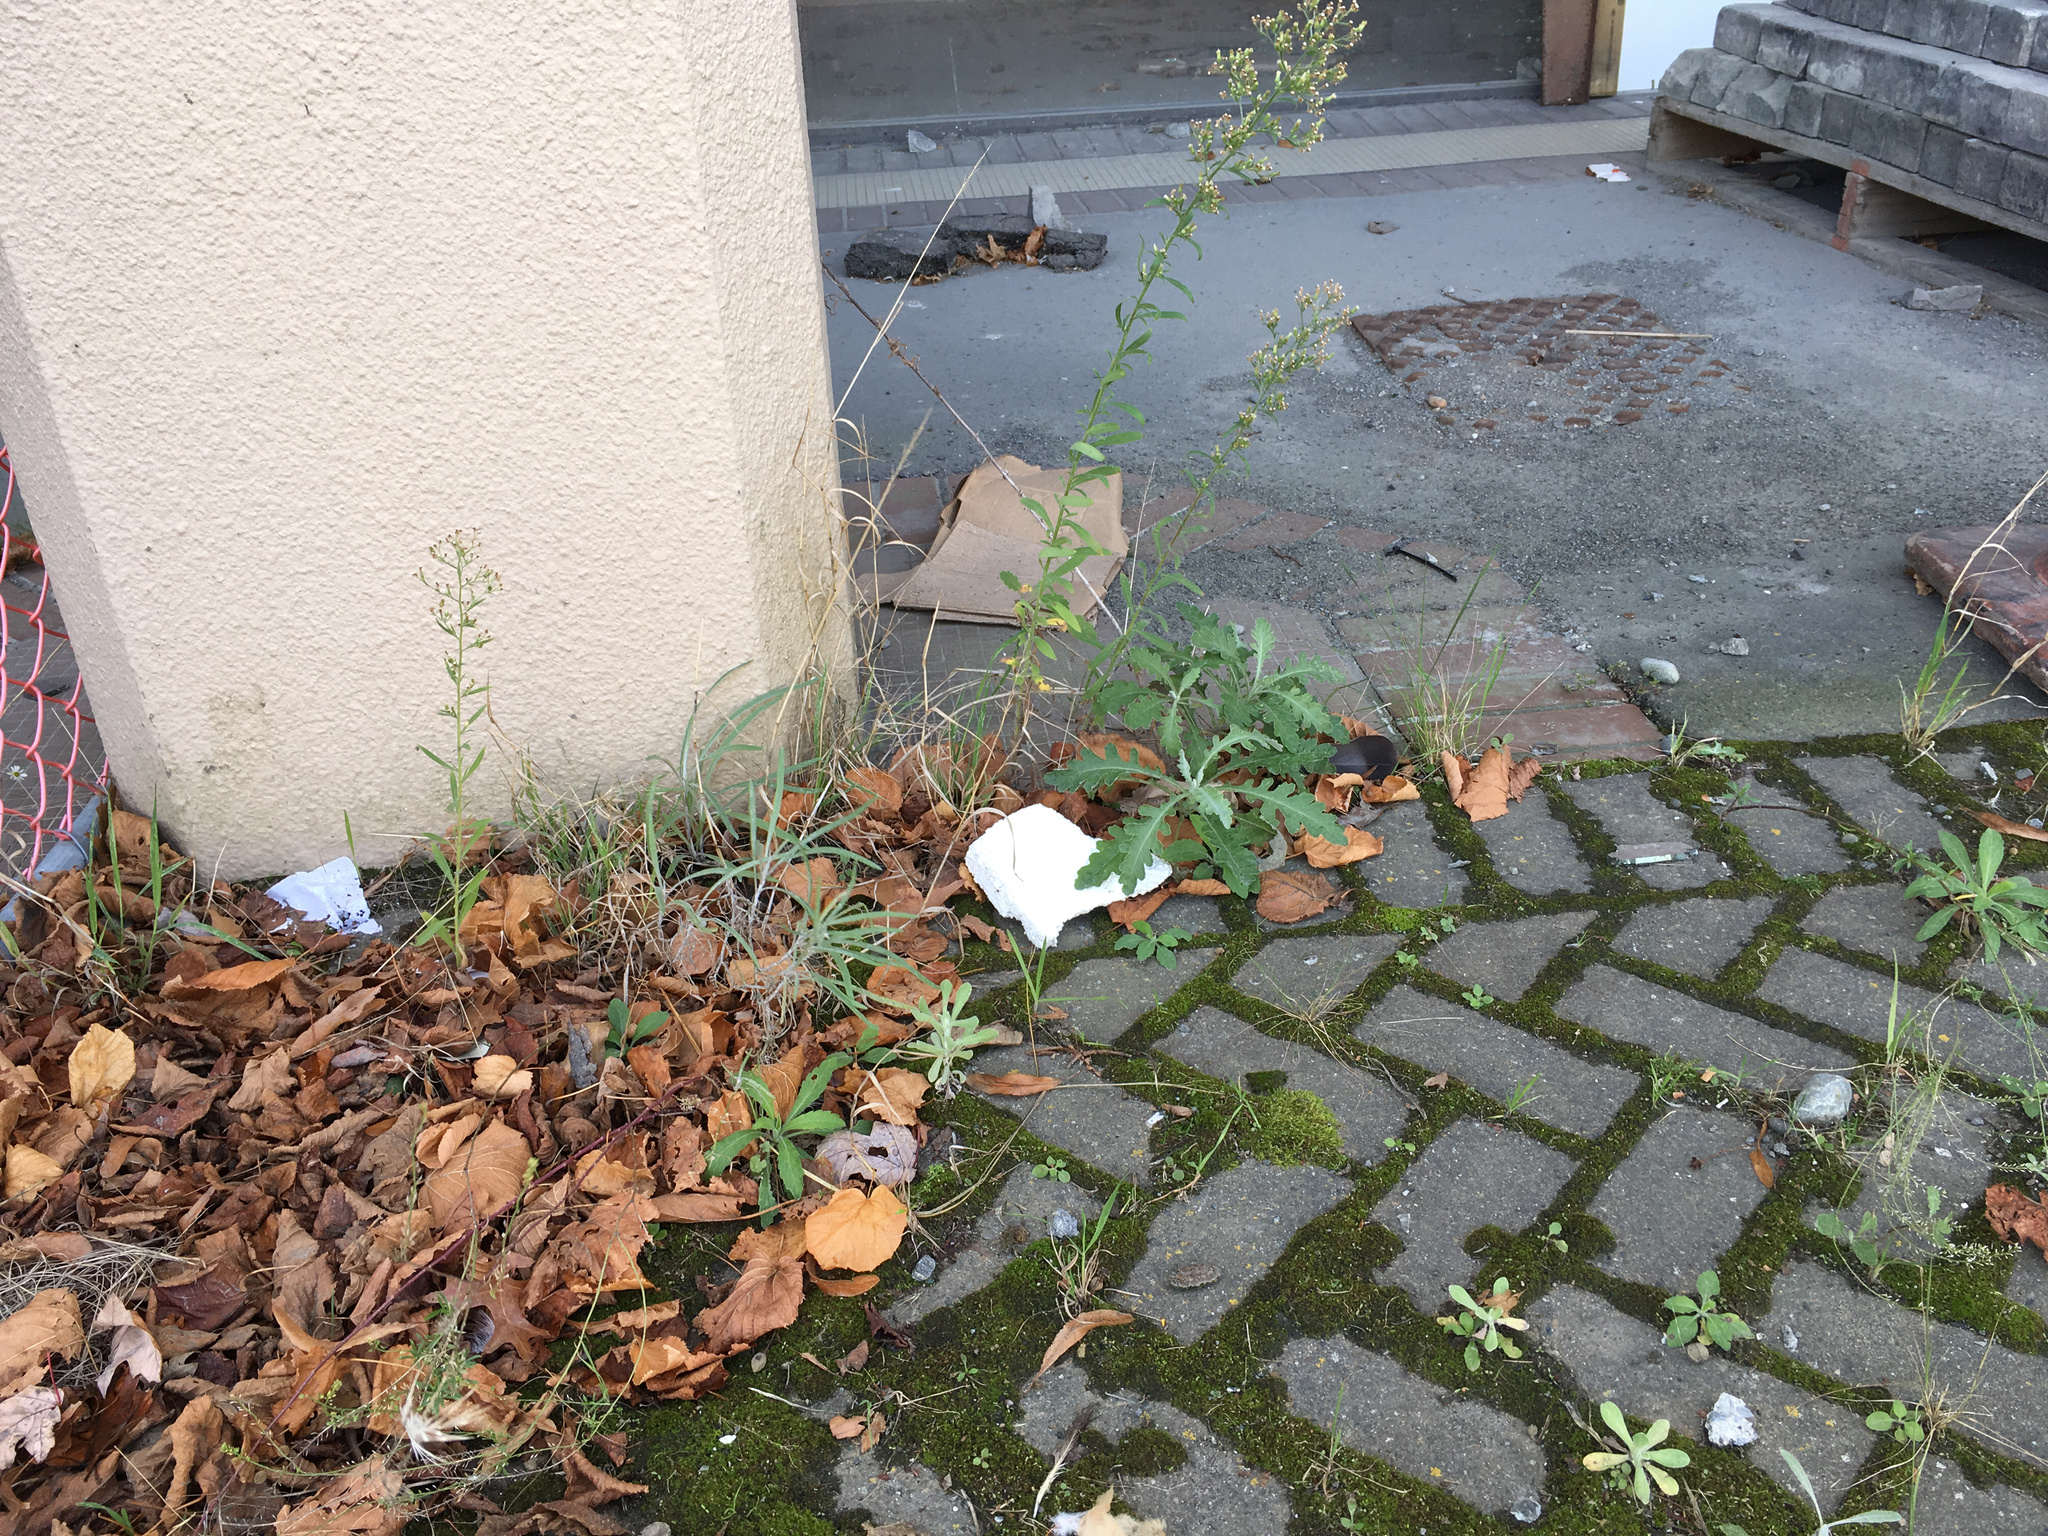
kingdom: Plantae
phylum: Tracheophyta
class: Magnoliopsida
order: Asterales
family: Asteraceae
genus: Senecio
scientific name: Senecio quadridentatus
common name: Cotton fireweed
